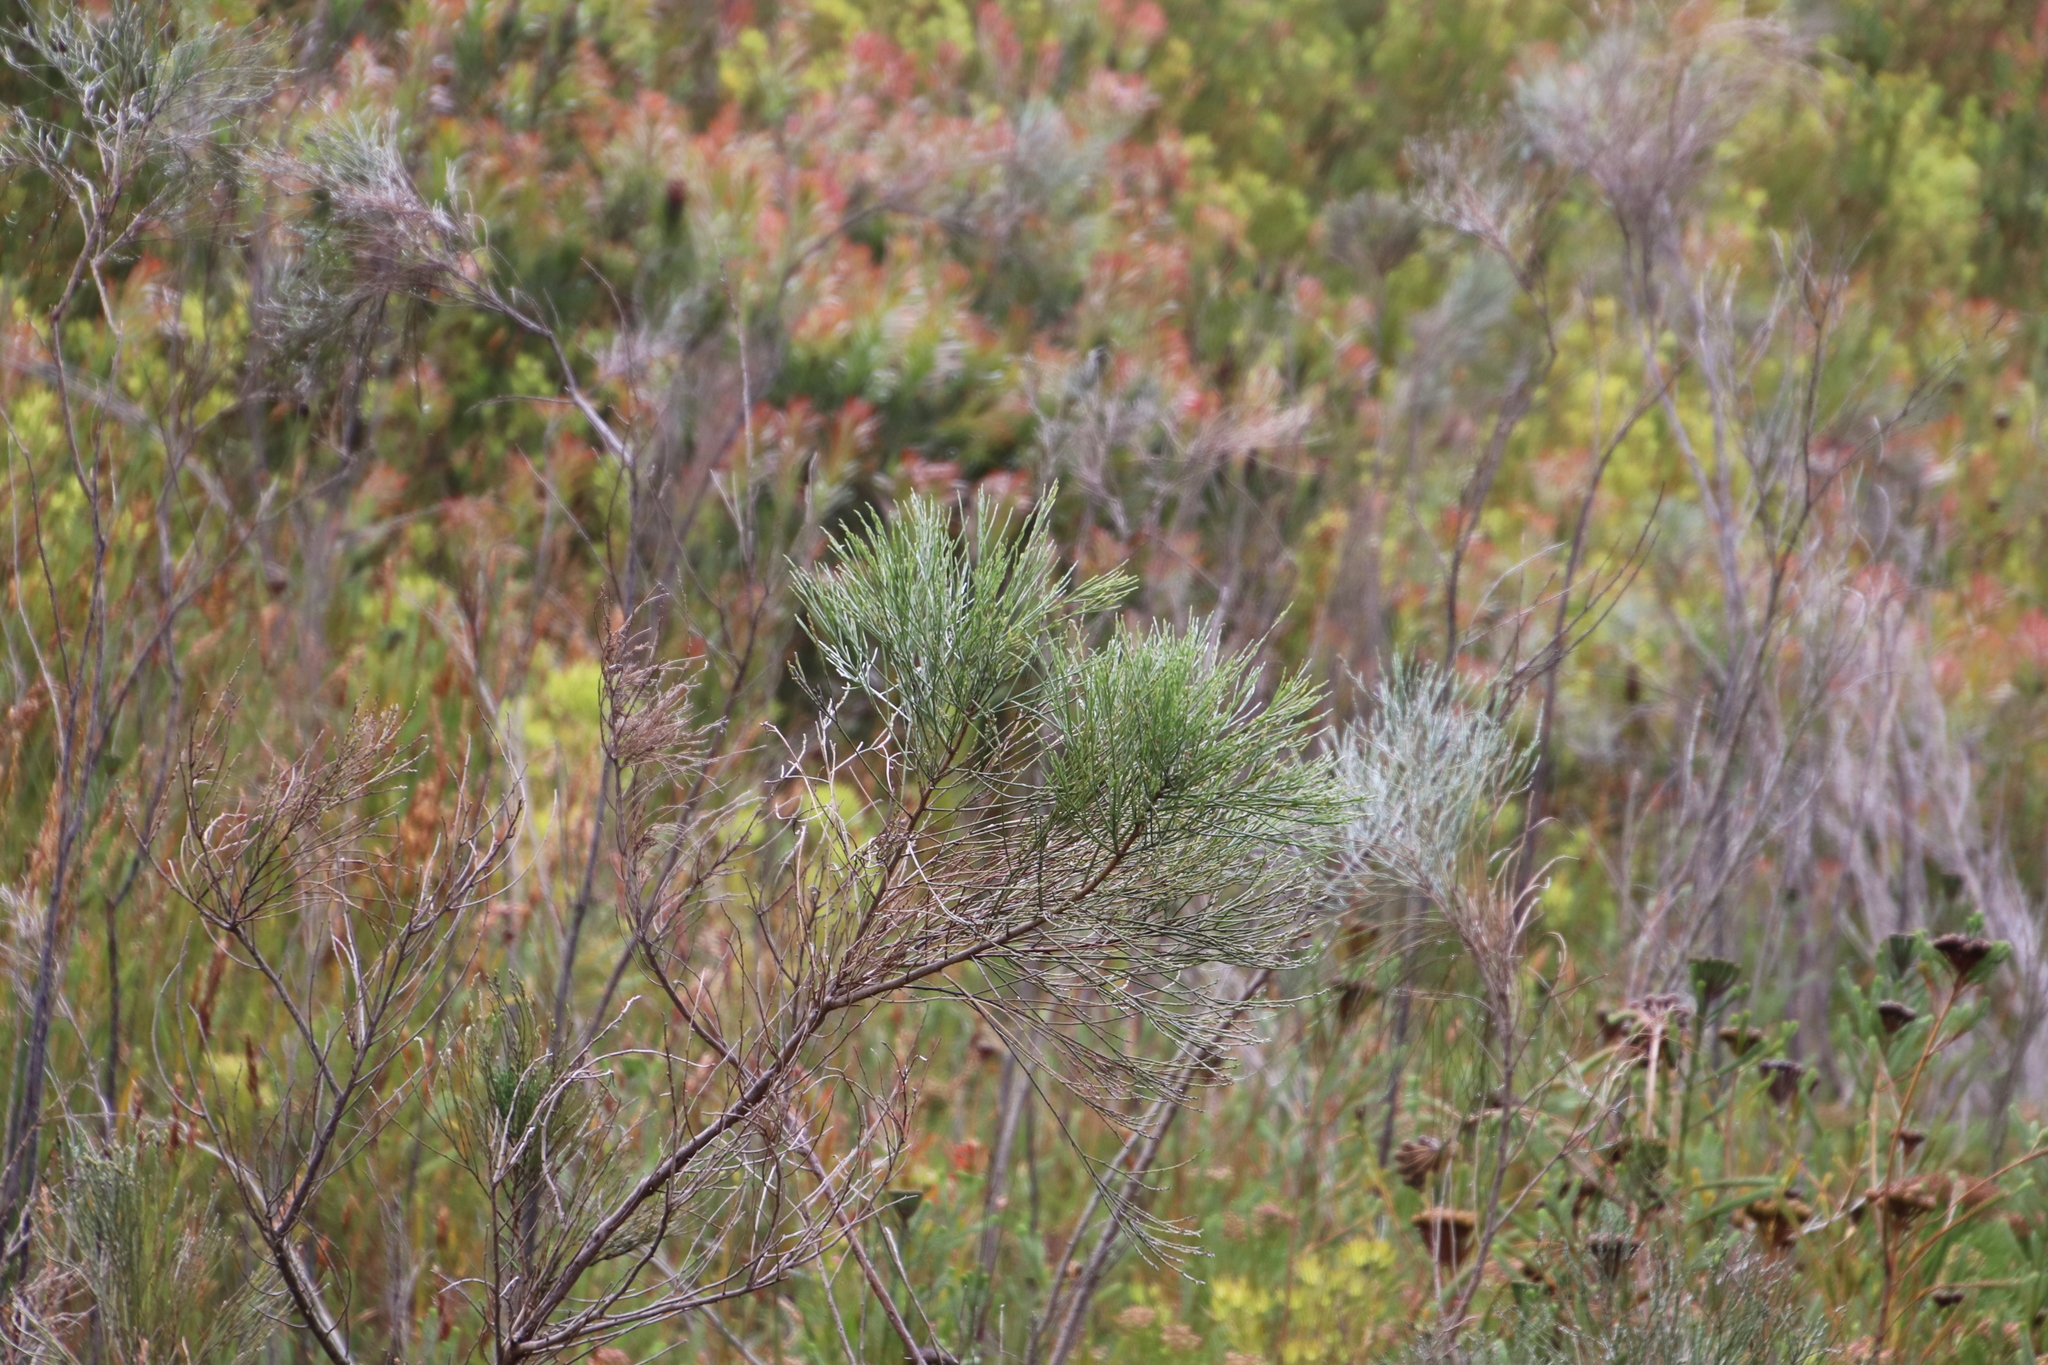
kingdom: Plantae
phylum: Tracheophyta
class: Magnoliopsida
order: Fabales
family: Fabaceae
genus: Psoralea
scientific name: Psoralea pullata
